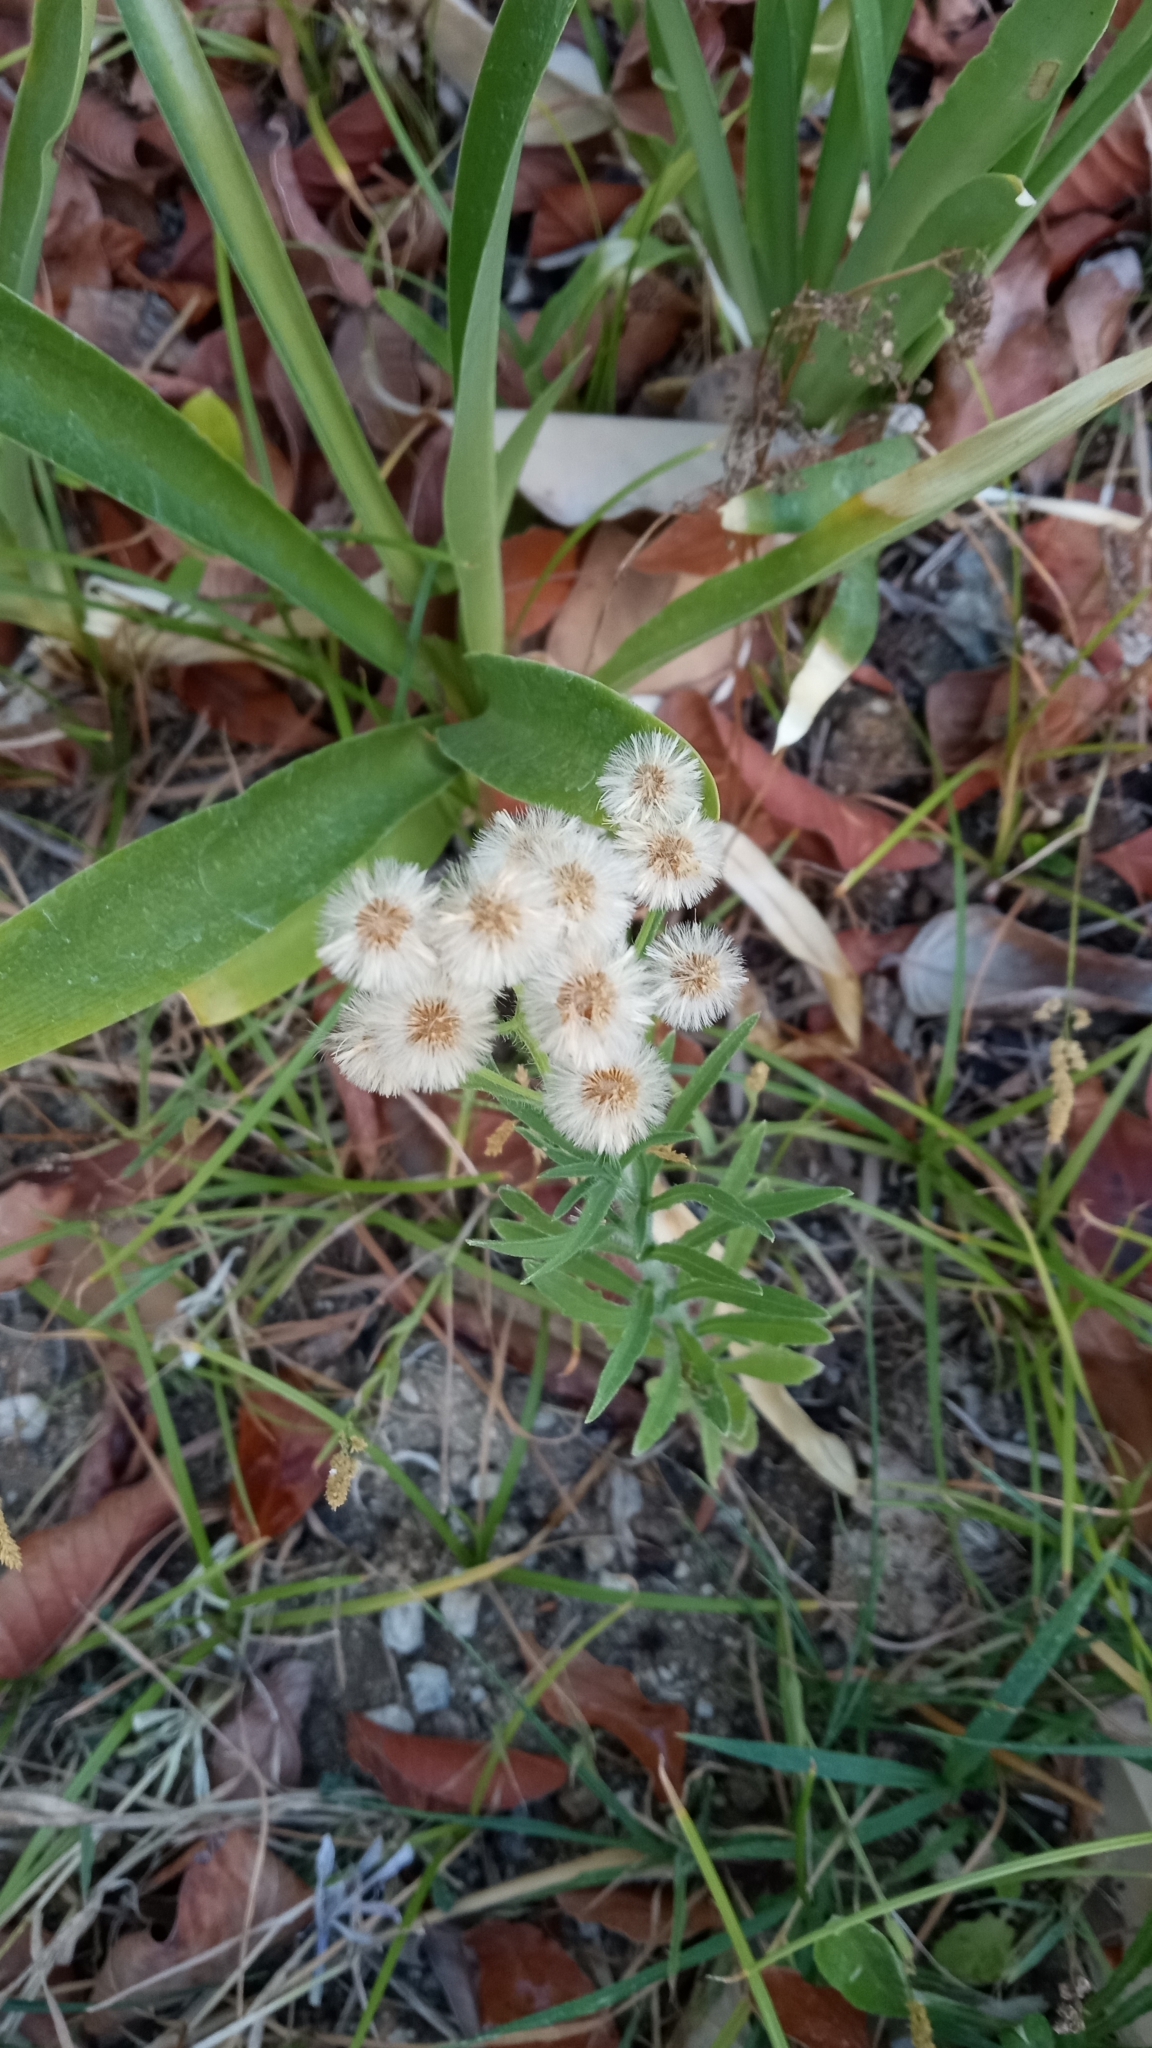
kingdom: Plantae
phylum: Tracheophyta
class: Magnoliopsida
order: Asterales
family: Asteraceae
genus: Erigeron
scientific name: Erigeron bonariensis
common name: Argentine fleabane
